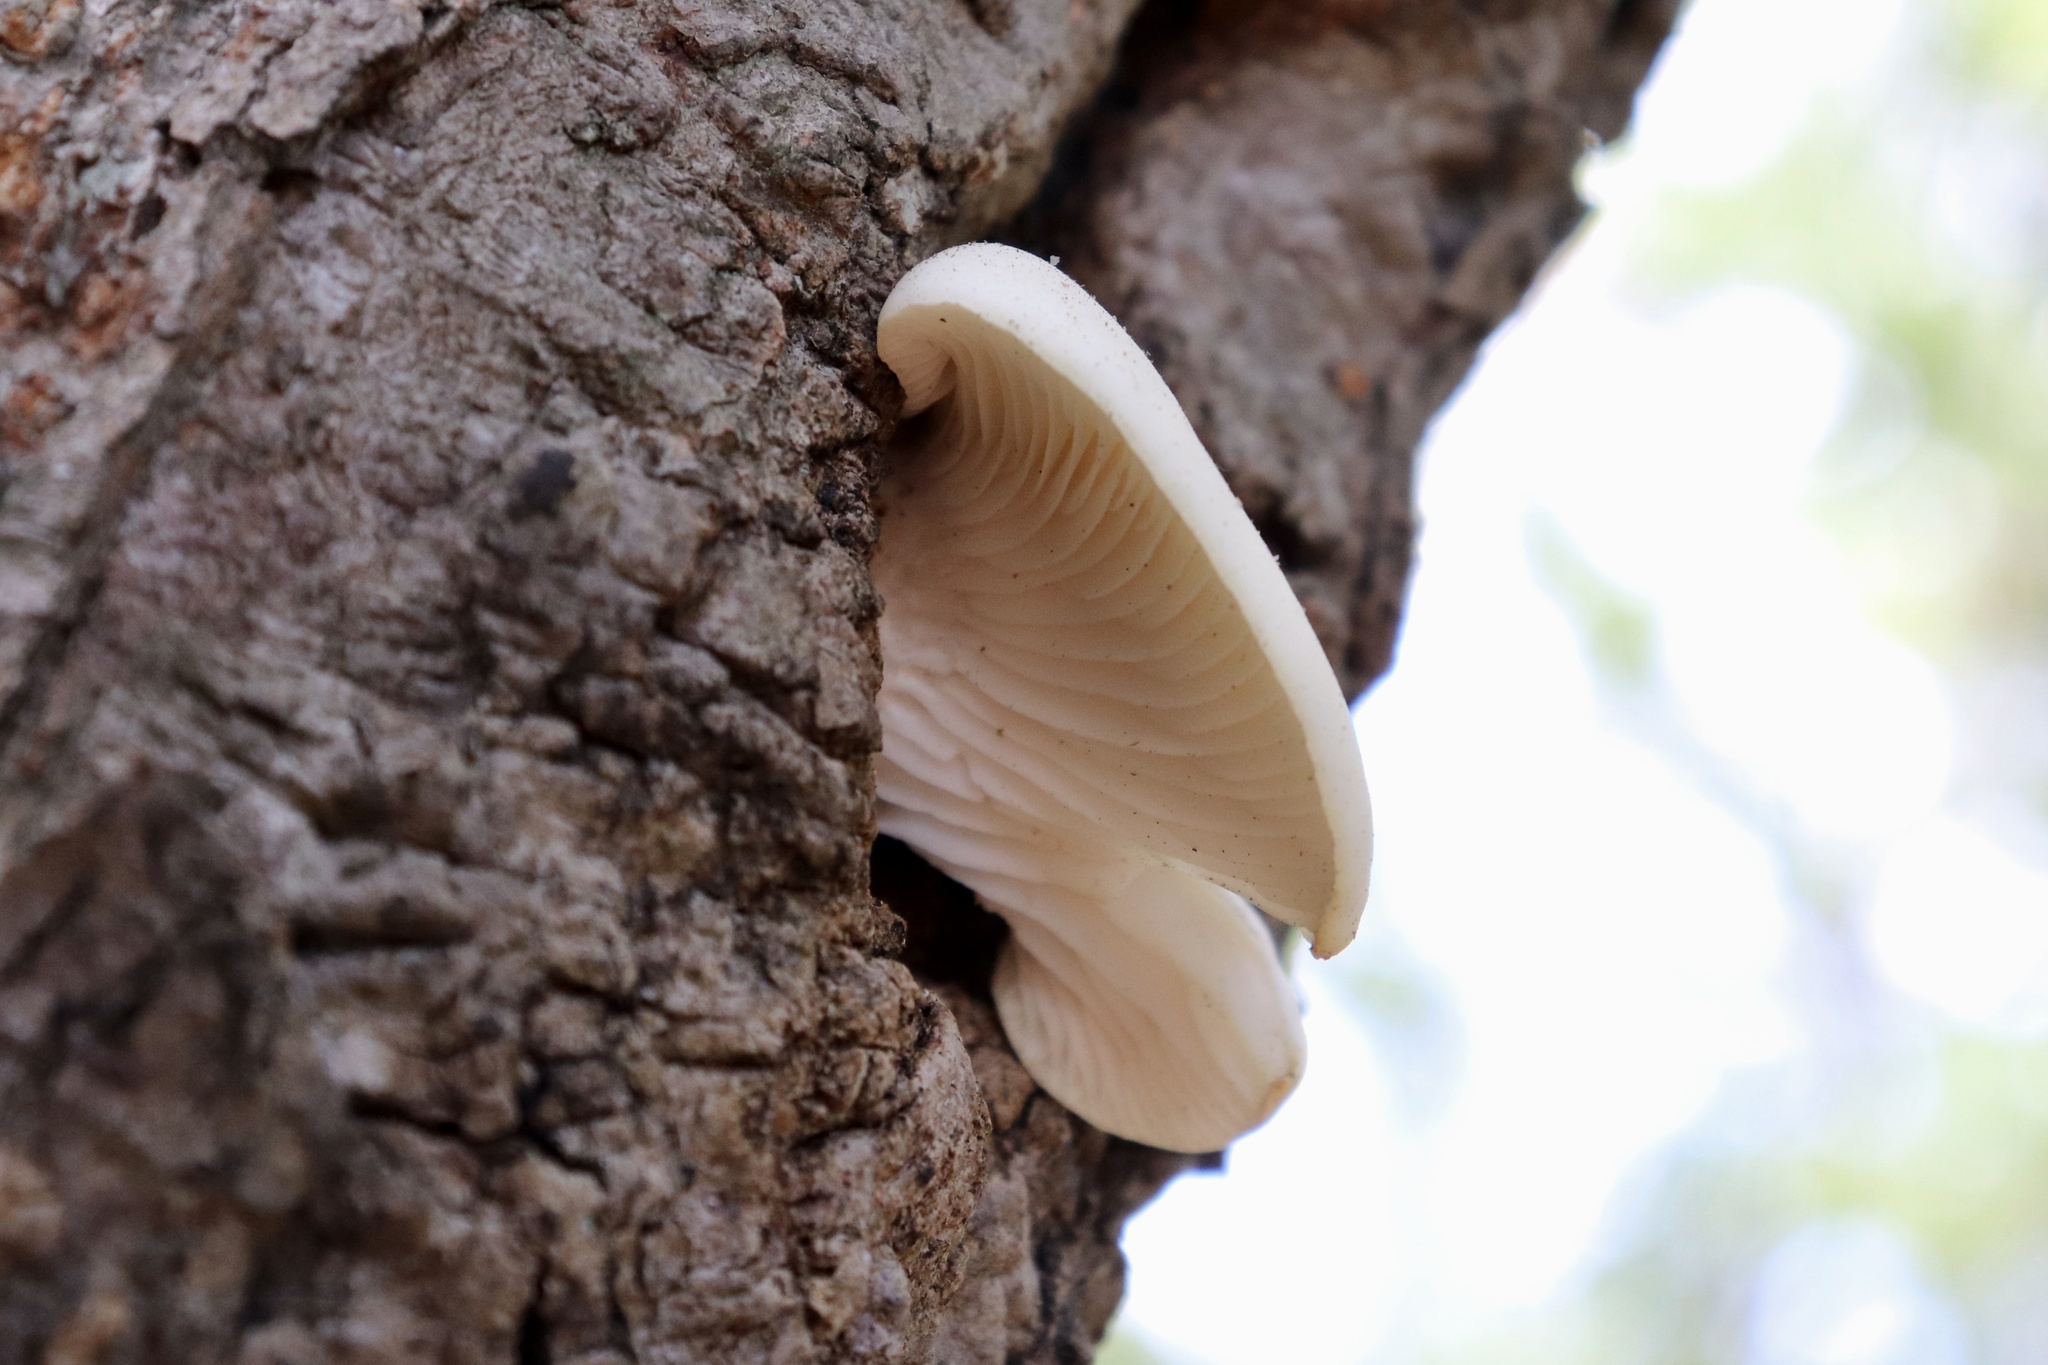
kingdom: Fungi
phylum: Basidiomycota
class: Agaricomycetes
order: Agaricales
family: Pleurotaceae
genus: Pleurotus
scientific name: Pleurotus pulmonarius
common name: Pale oyster
